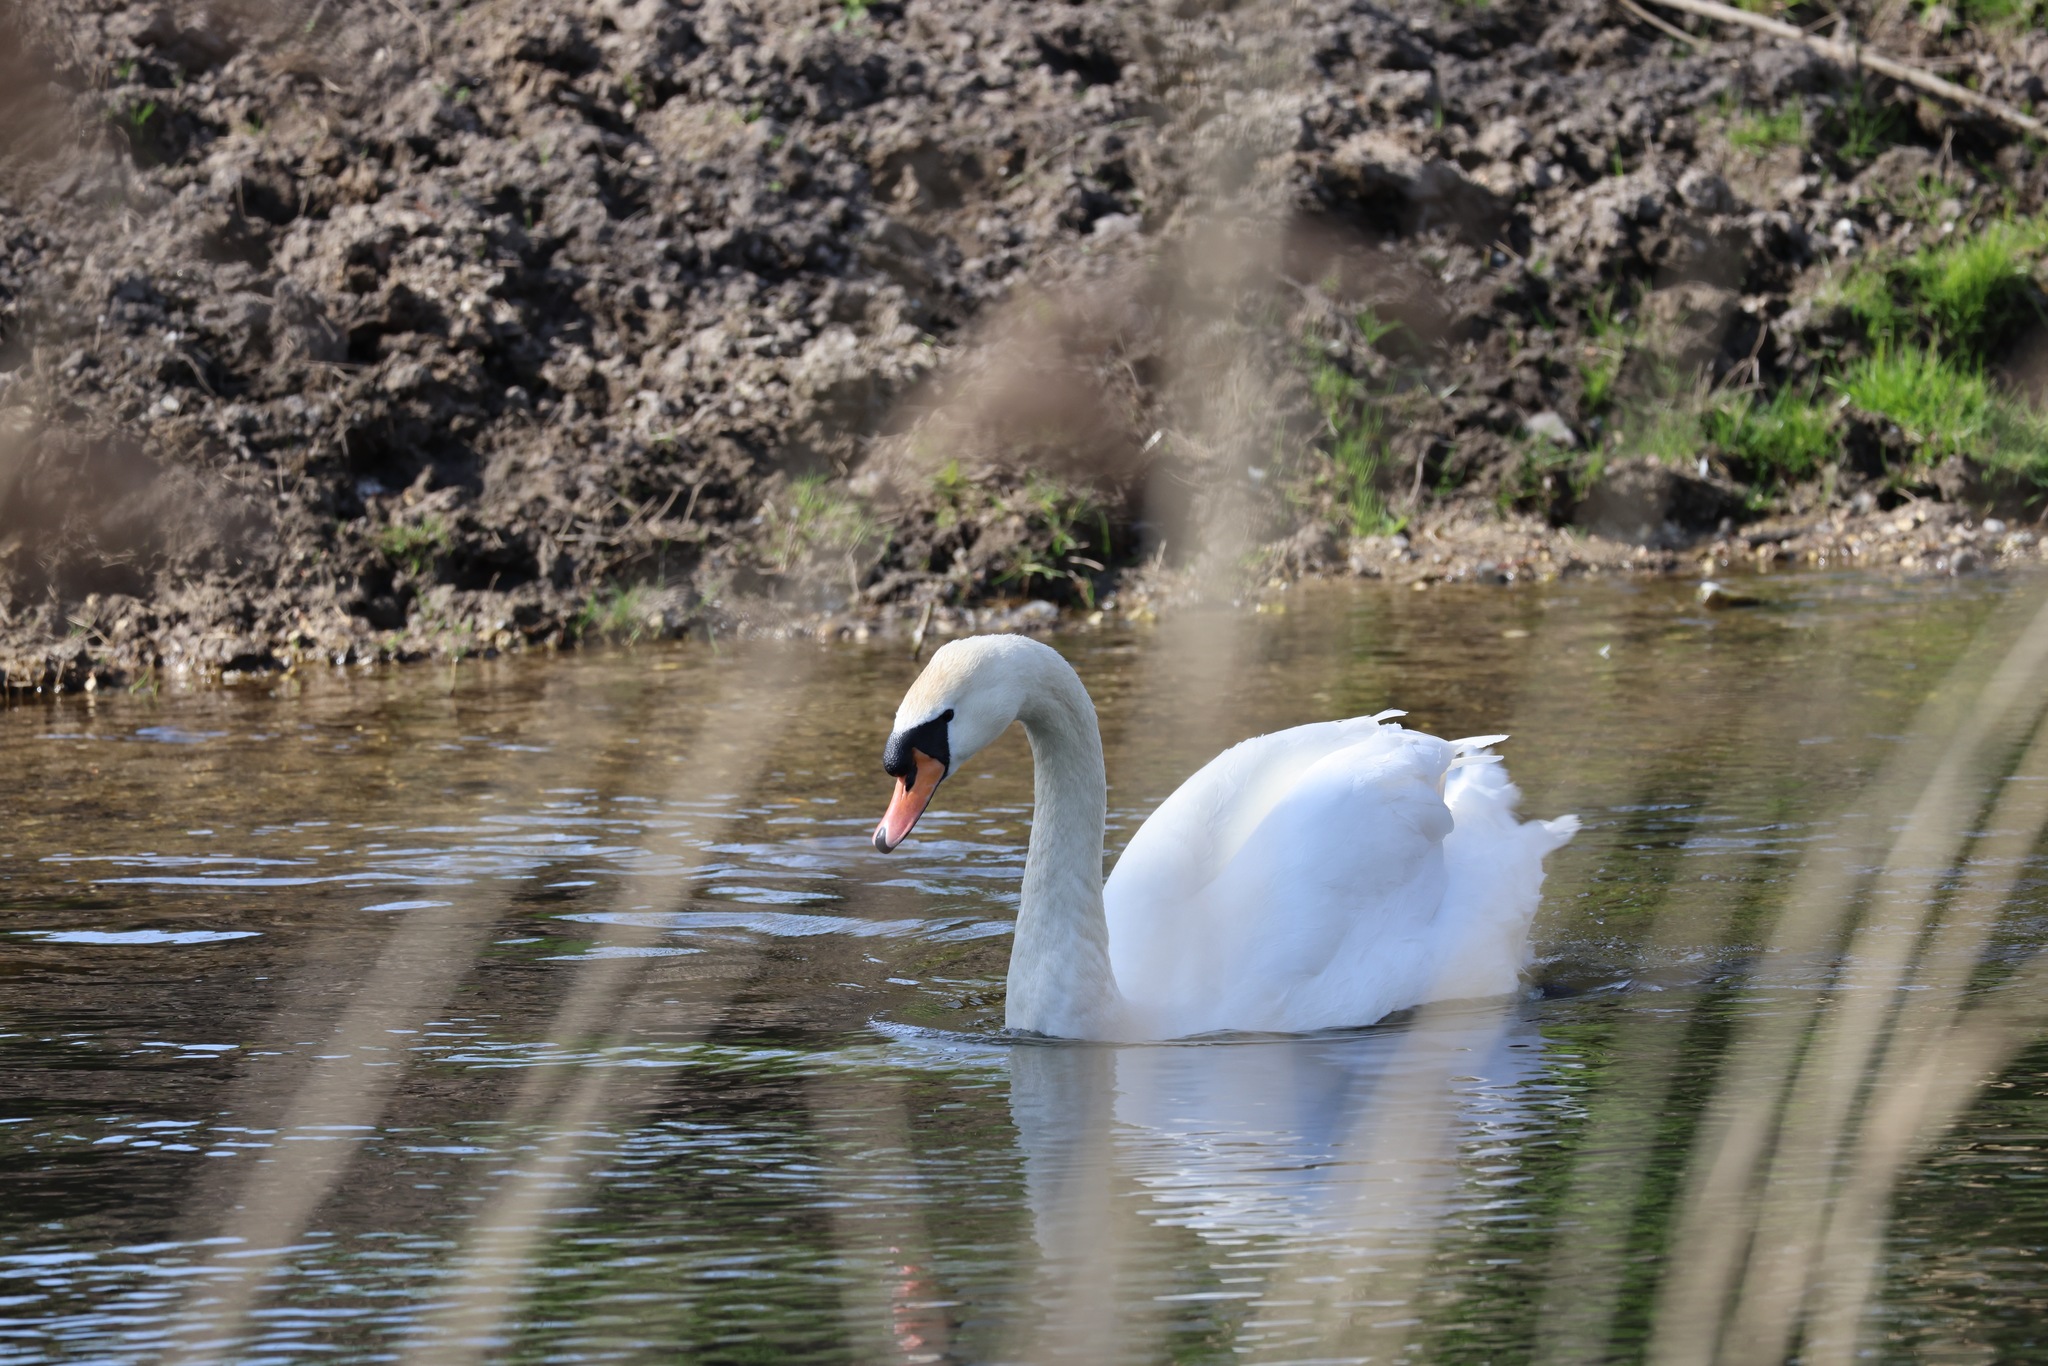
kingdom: Animalia
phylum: Chordata
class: Aves
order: Anseriformes
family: Anatidae
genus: Cygnus
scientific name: Cygnus olor
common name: Mute swan
